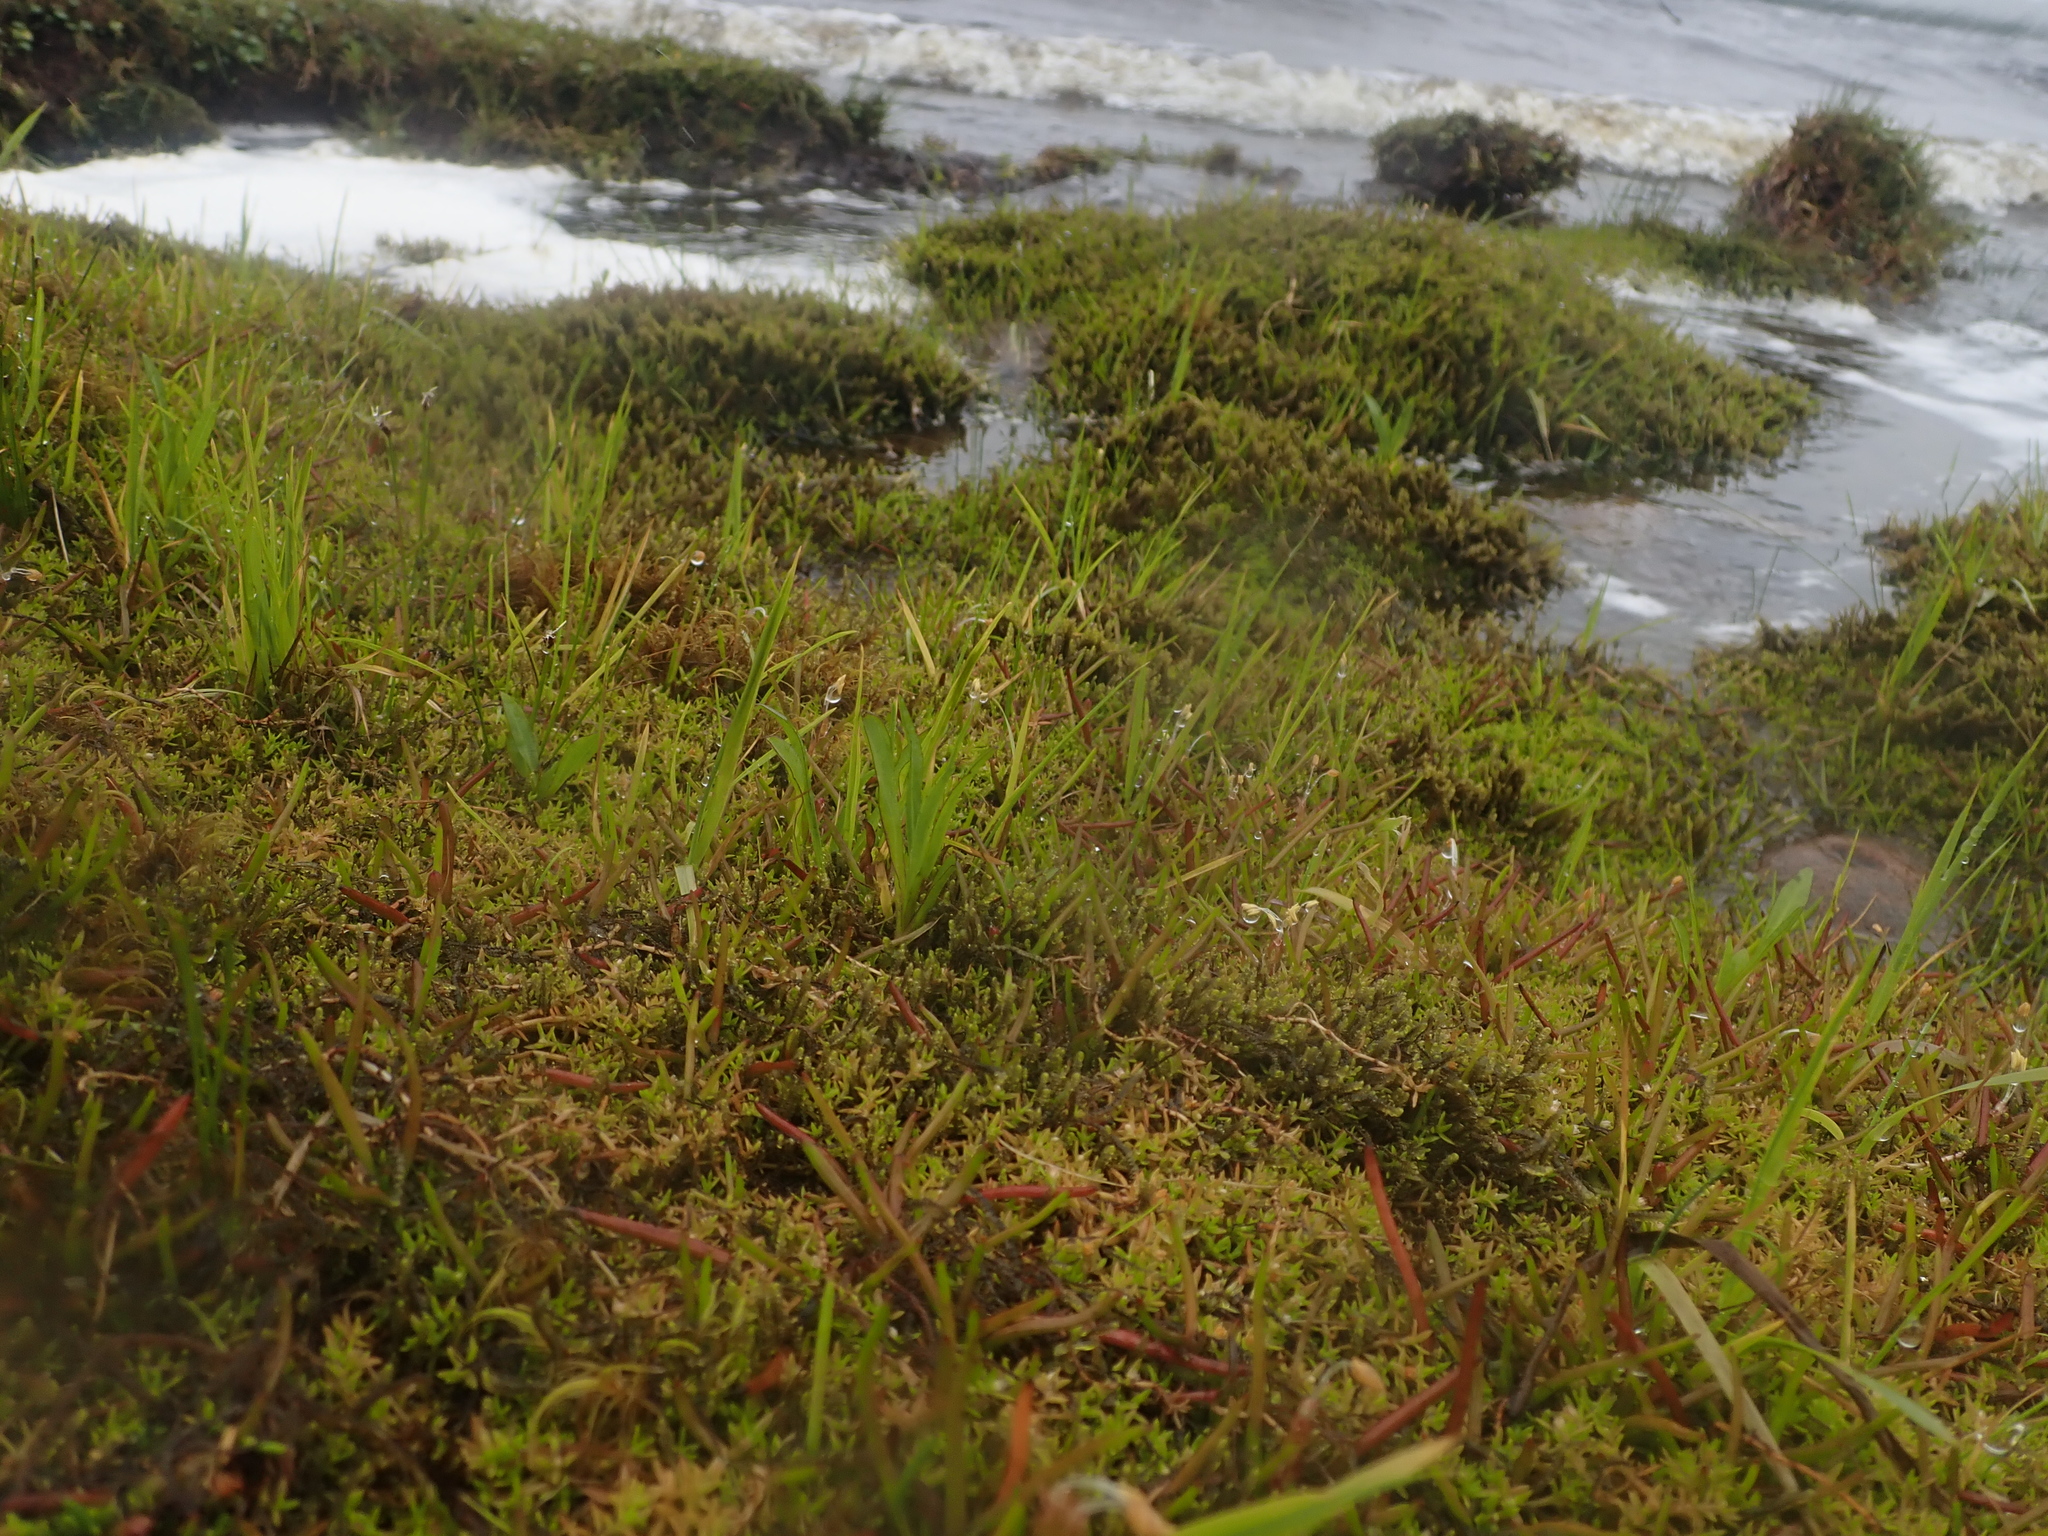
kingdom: Plantae
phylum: Tracheophyta
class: Magnoliopsida
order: Asterales
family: Asteraceae
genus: Symphyotrichum
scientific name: Symphyotrichum vahlii
